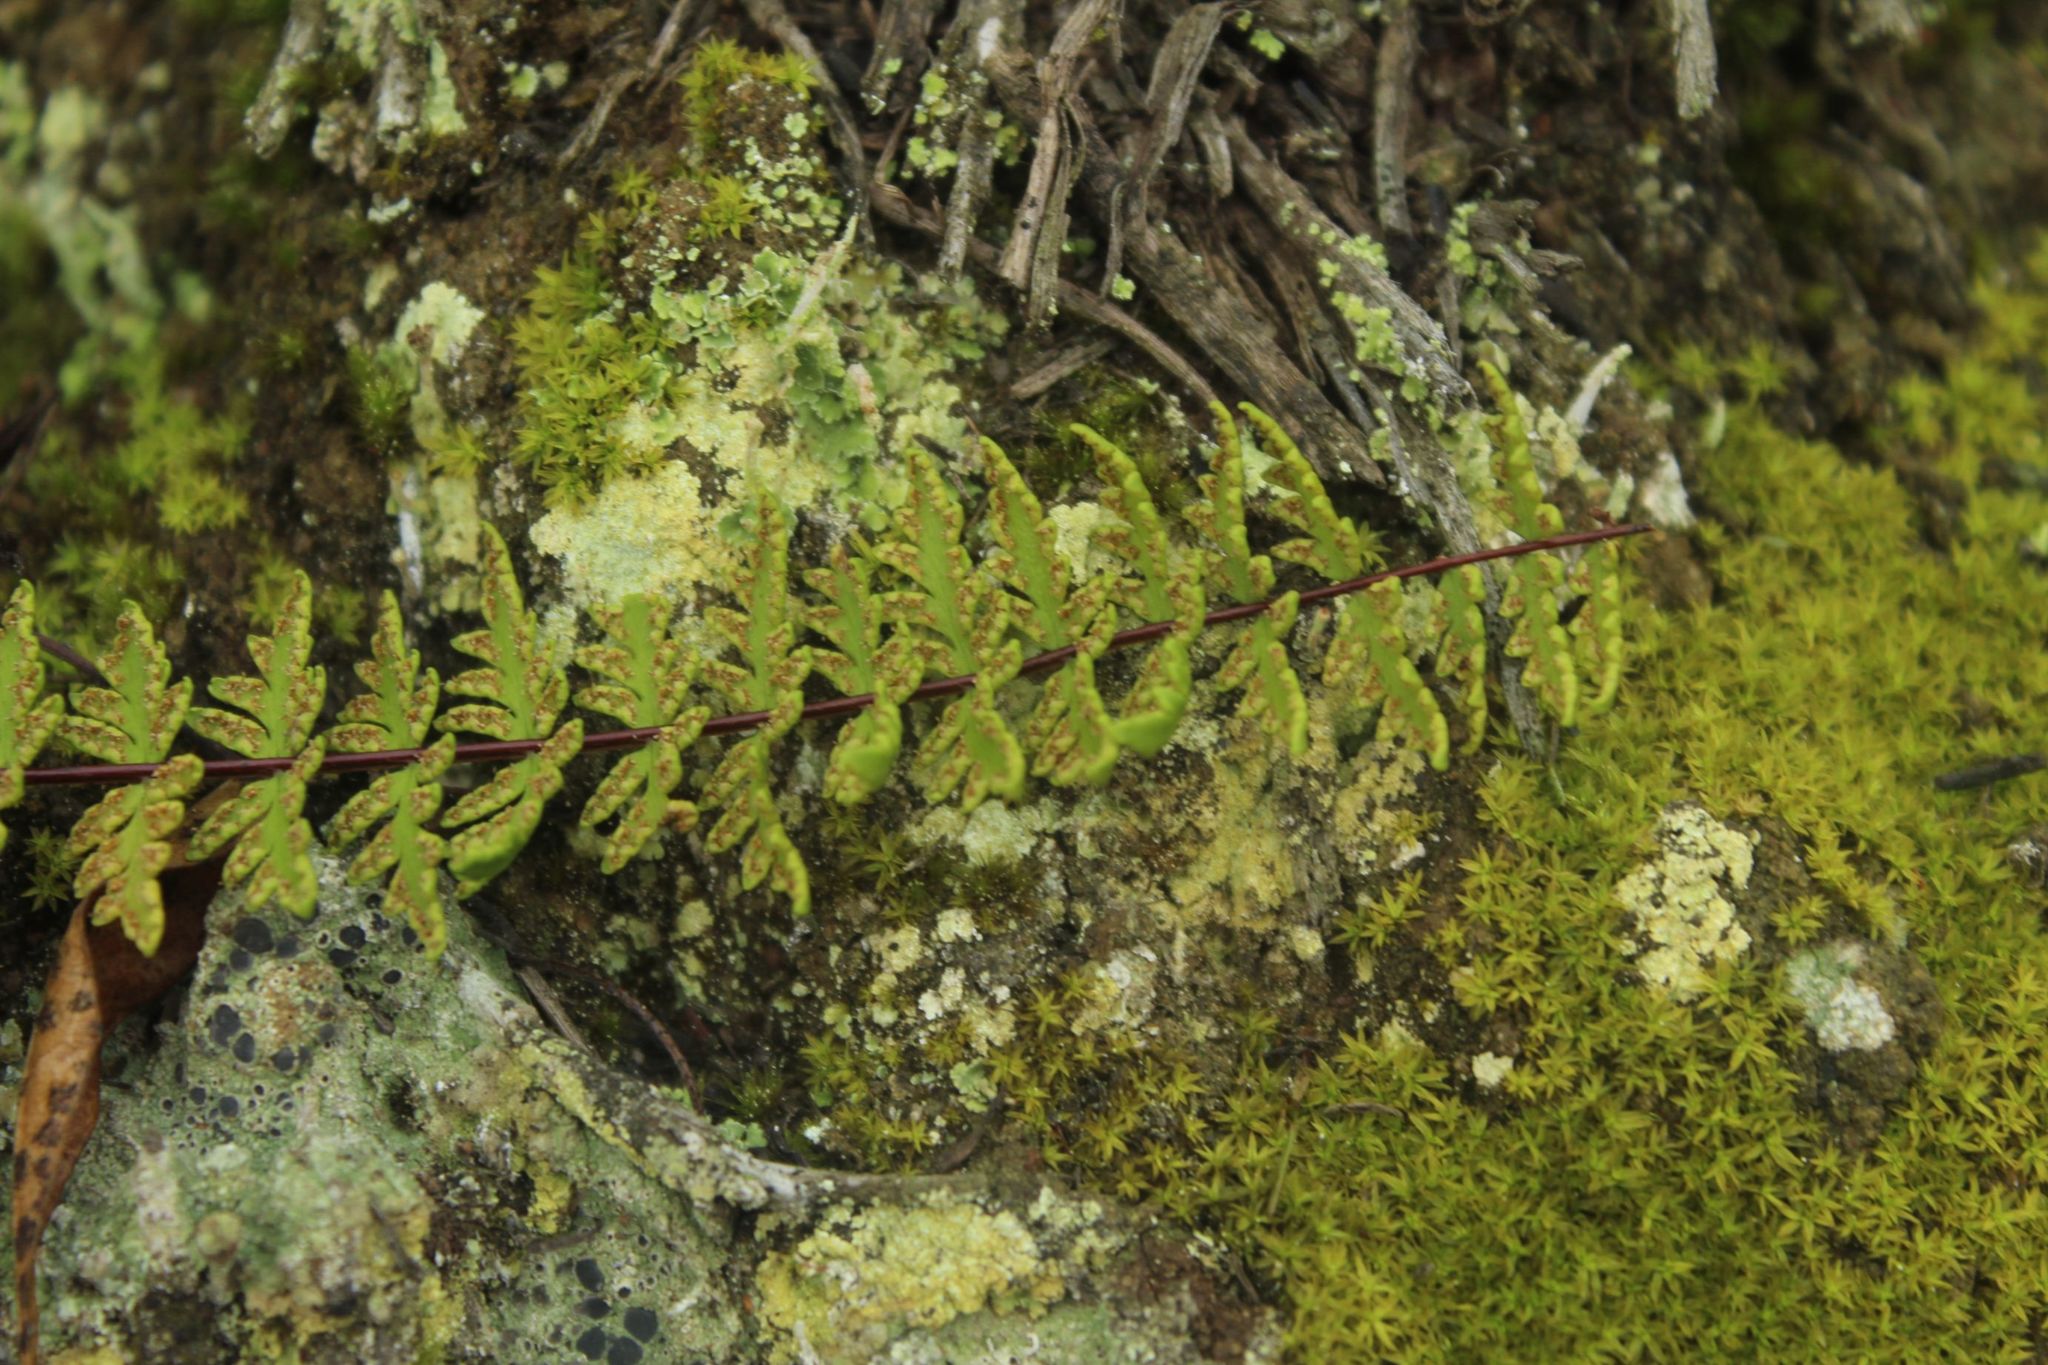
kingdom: Plantae
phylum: Tracheophyta
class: Polypodiopsida
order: Polypodiales
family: Pteridaceae
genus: Adiantopsis
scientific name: Adiantopsis lindigii
